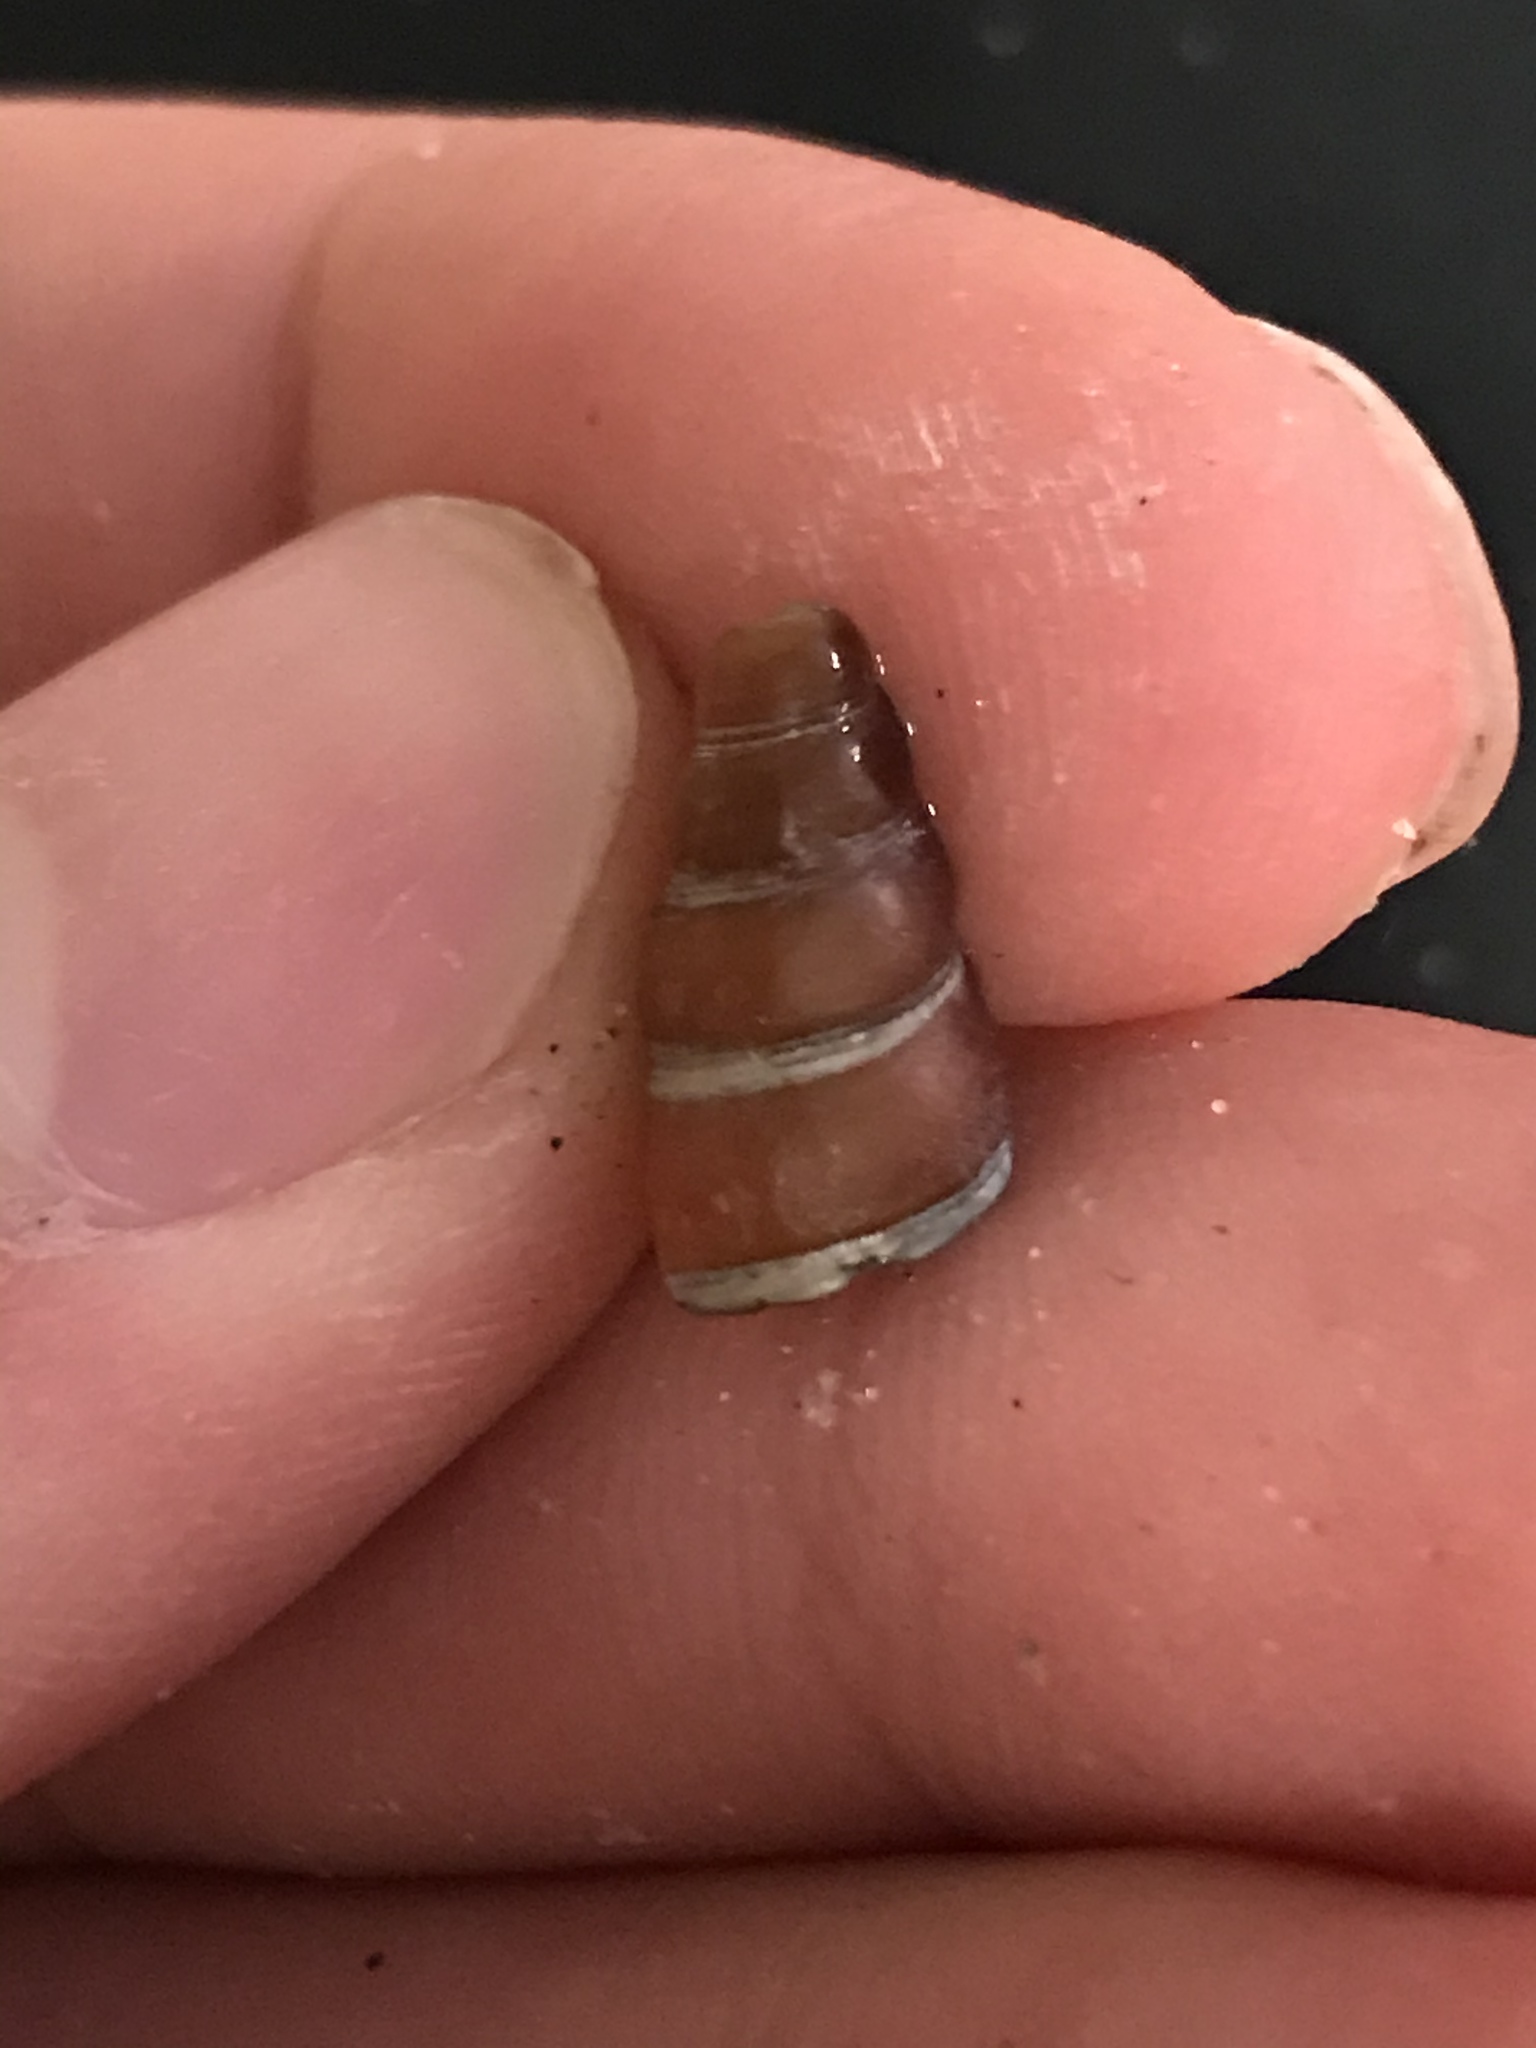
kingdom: Animalia
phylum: Mollusca
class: Gastropoda
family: Potamididae
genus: Cerithideopsis
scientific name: Cerithideopsis californica
